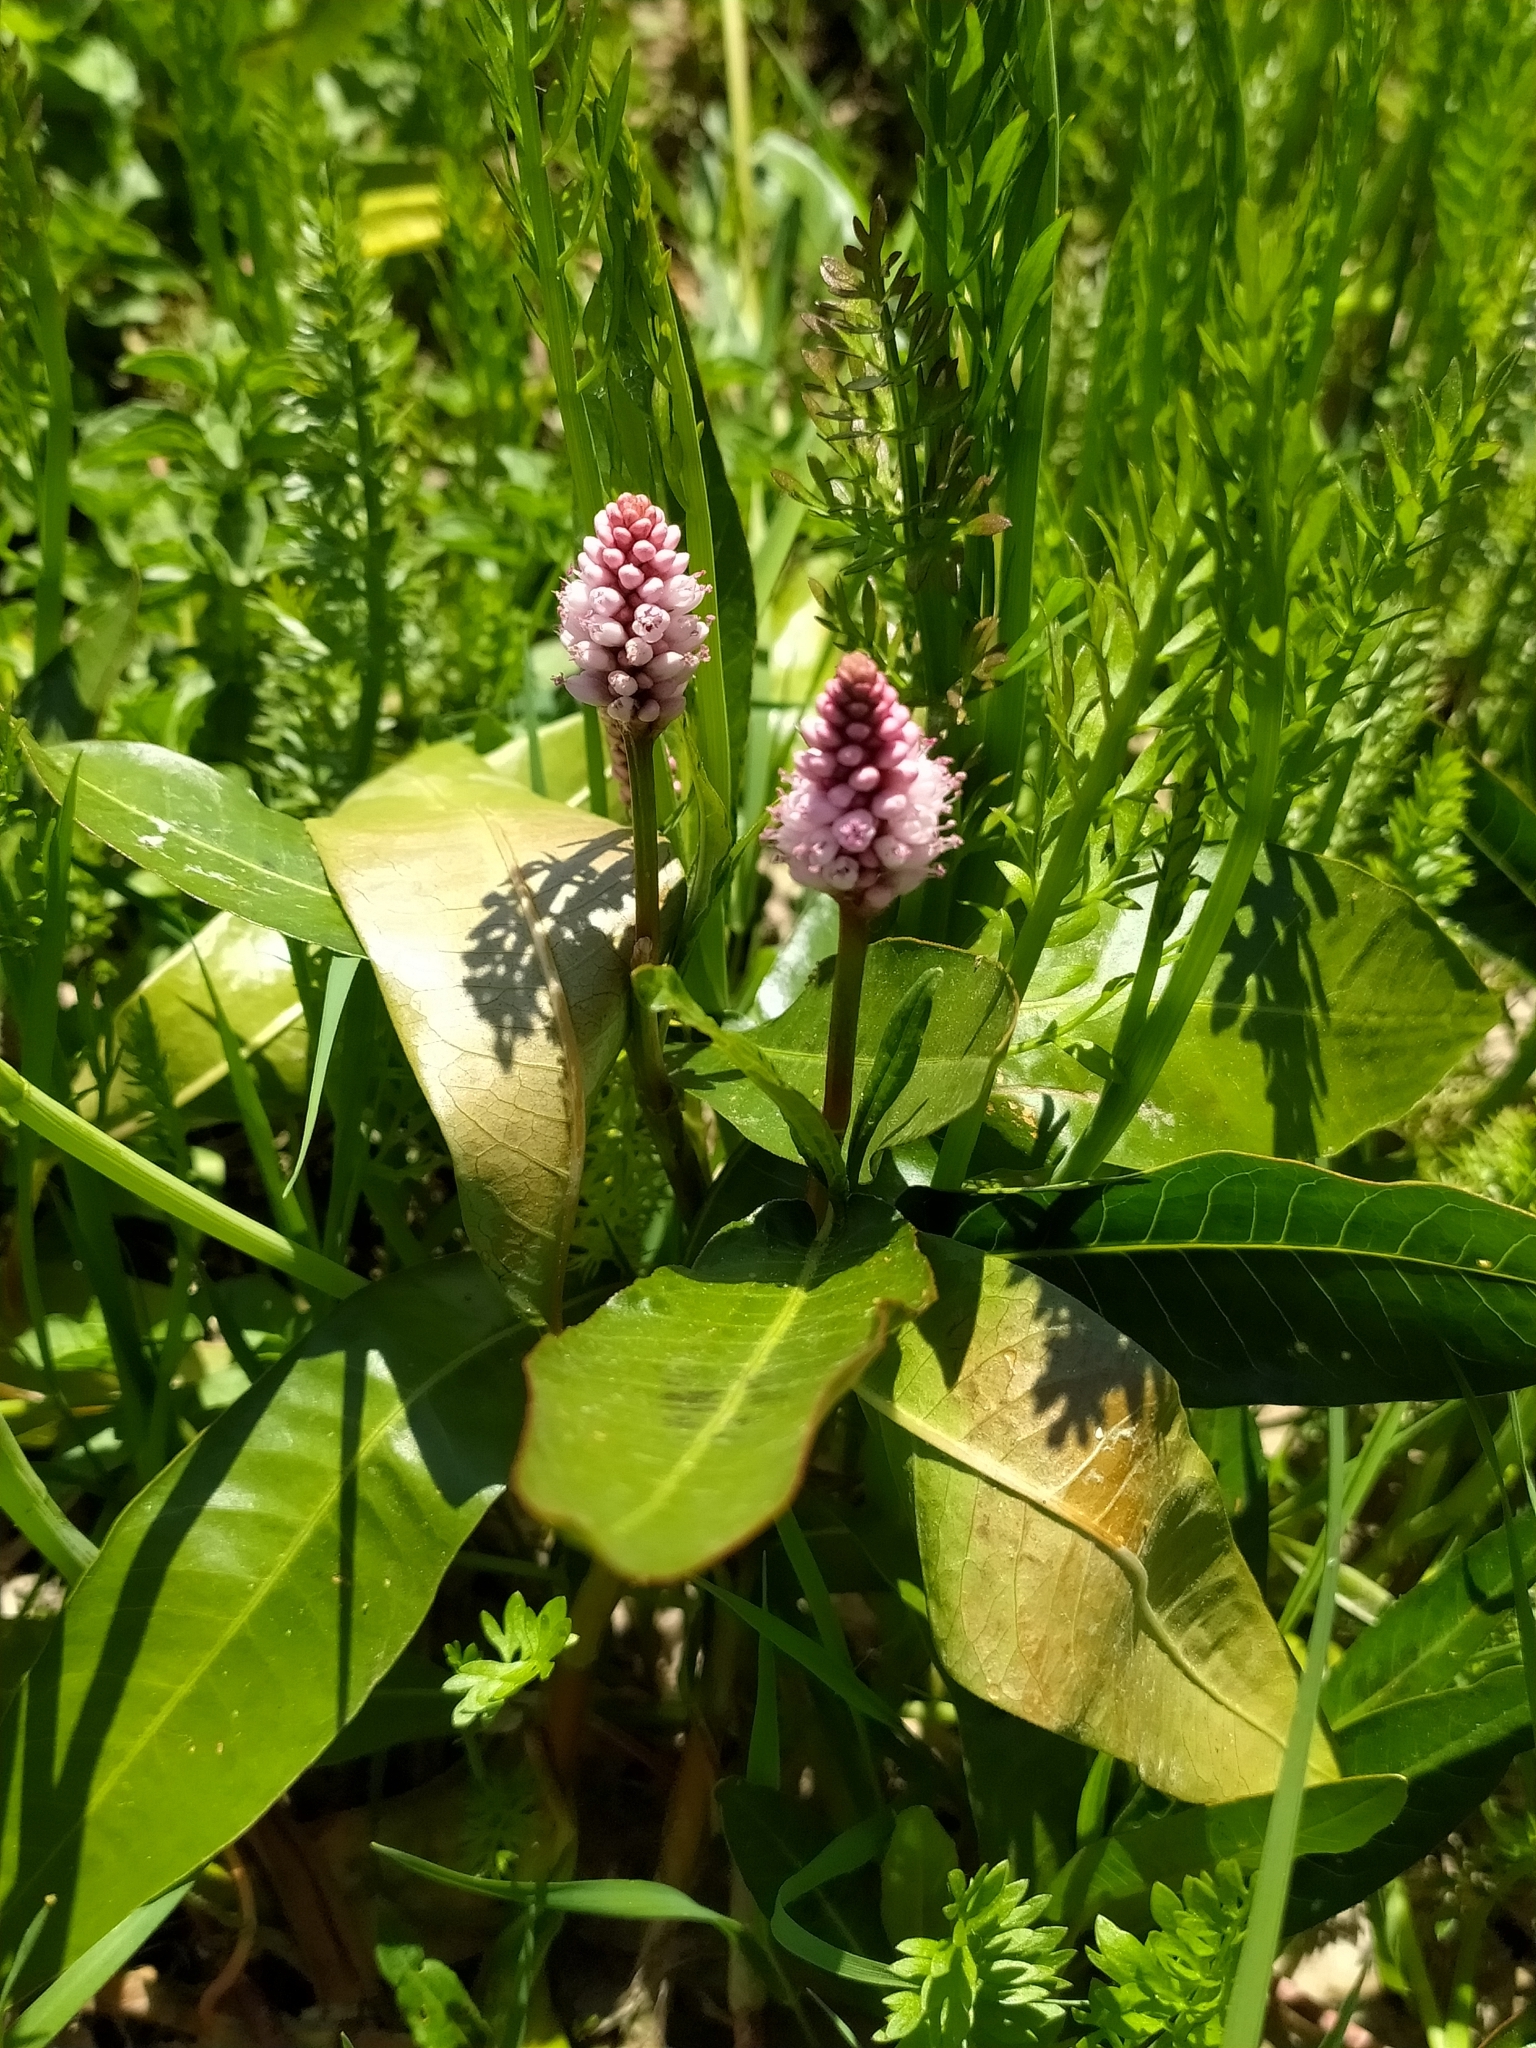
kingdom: Plantae
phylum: Tracheophyta
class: Magnoliopsida
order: Caryophyllales
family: Polygonaceae
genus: Persicaria
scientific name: Persicaria amphibia
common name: Amphibious bistort
